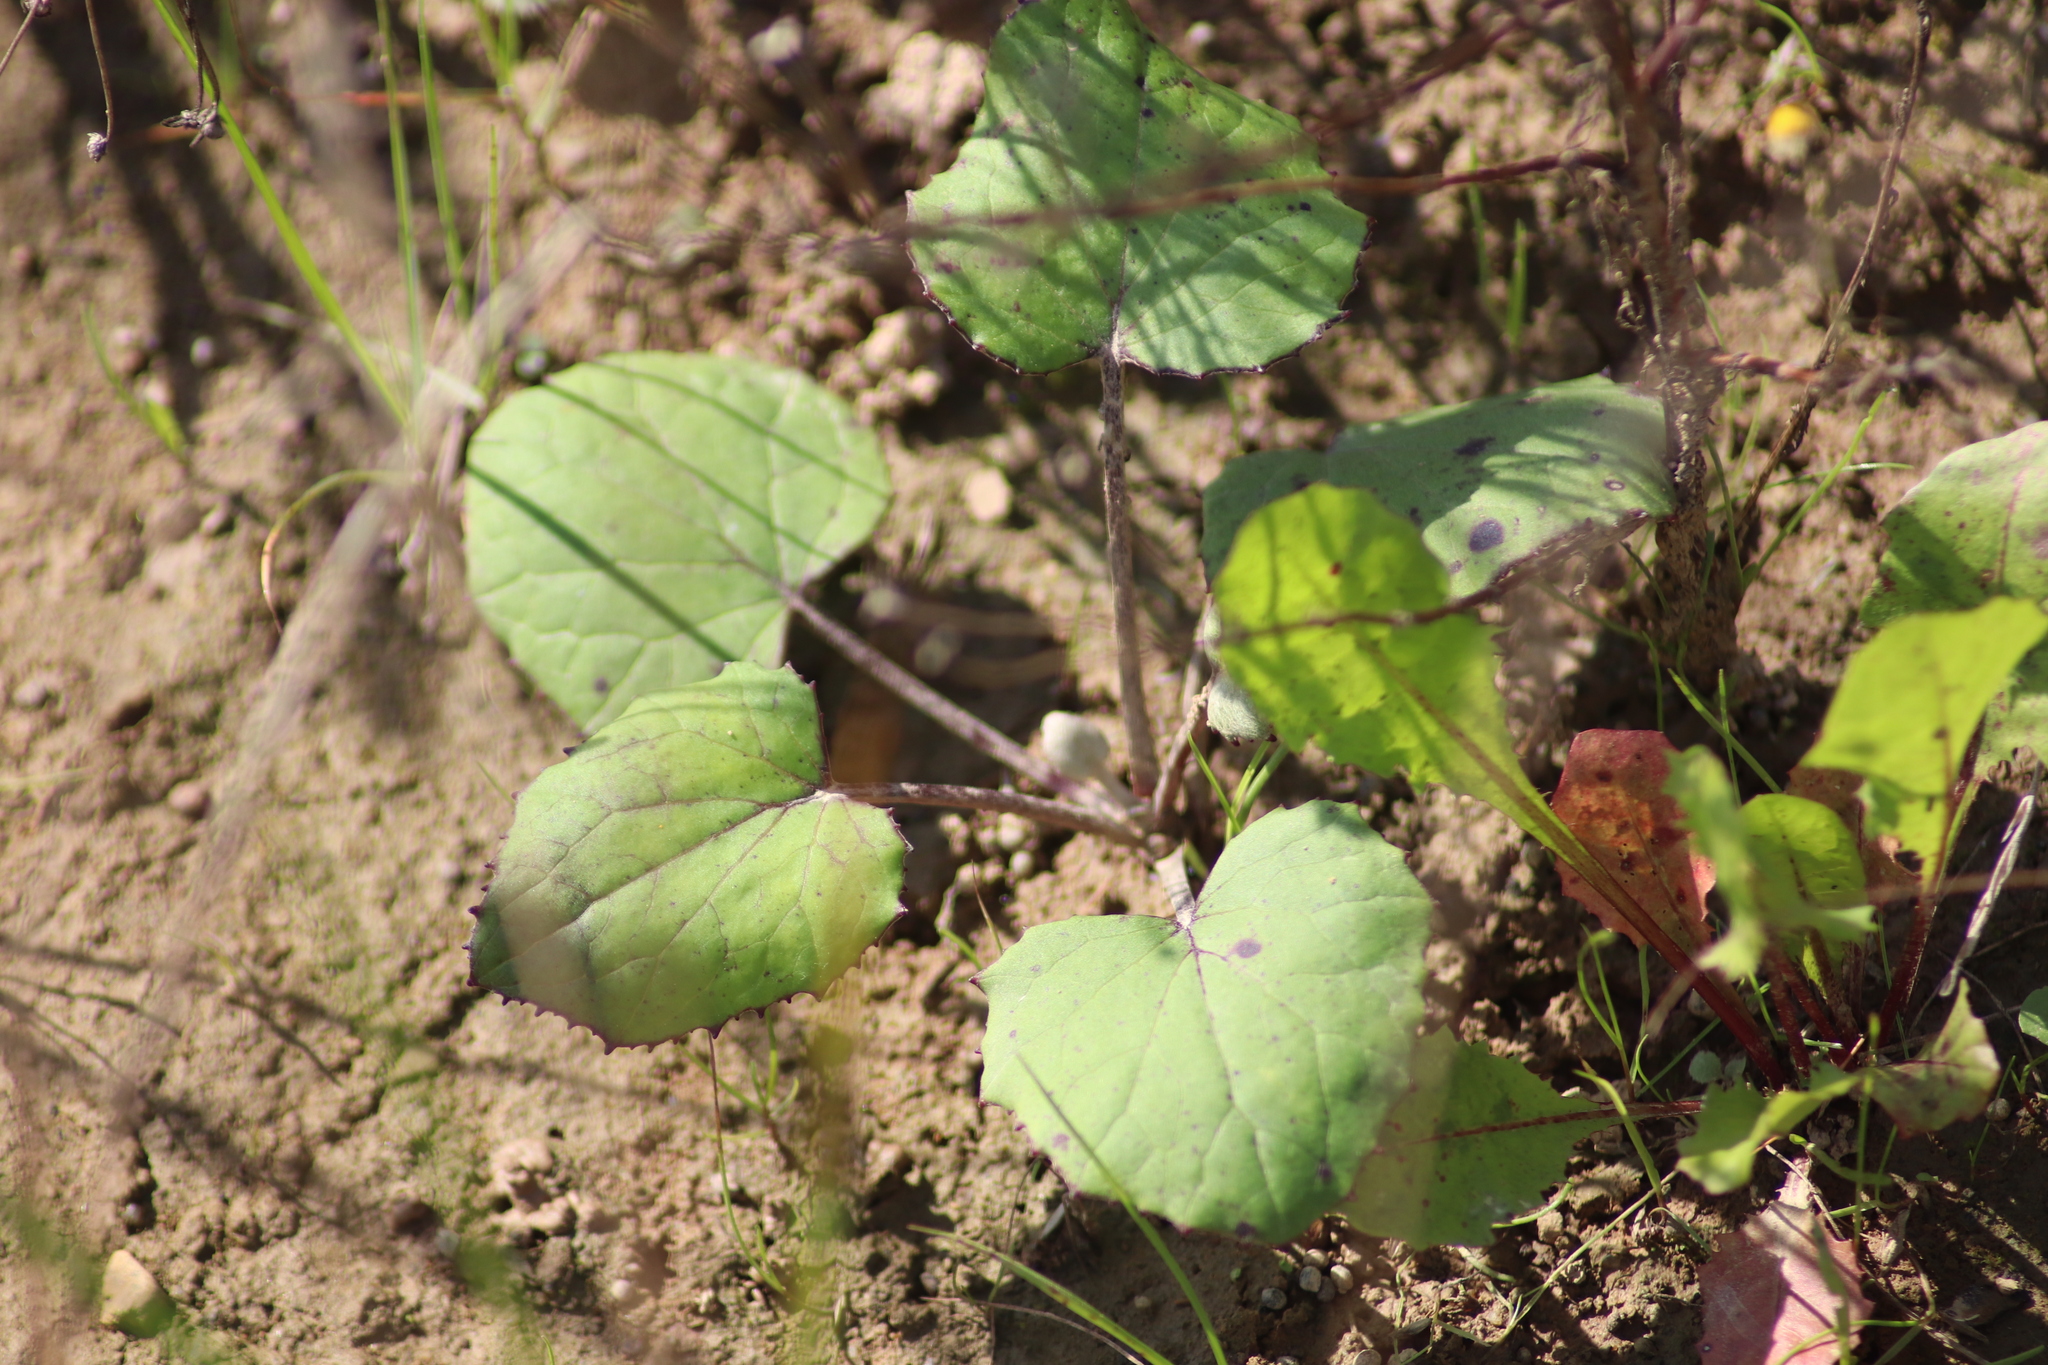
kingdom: Plantae
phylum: Tracheophyta
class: Magnoliopsida
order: Asterales
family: Asteraceae
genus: Tussilago
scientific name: Tussilago farfara
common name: Coltsfoot
